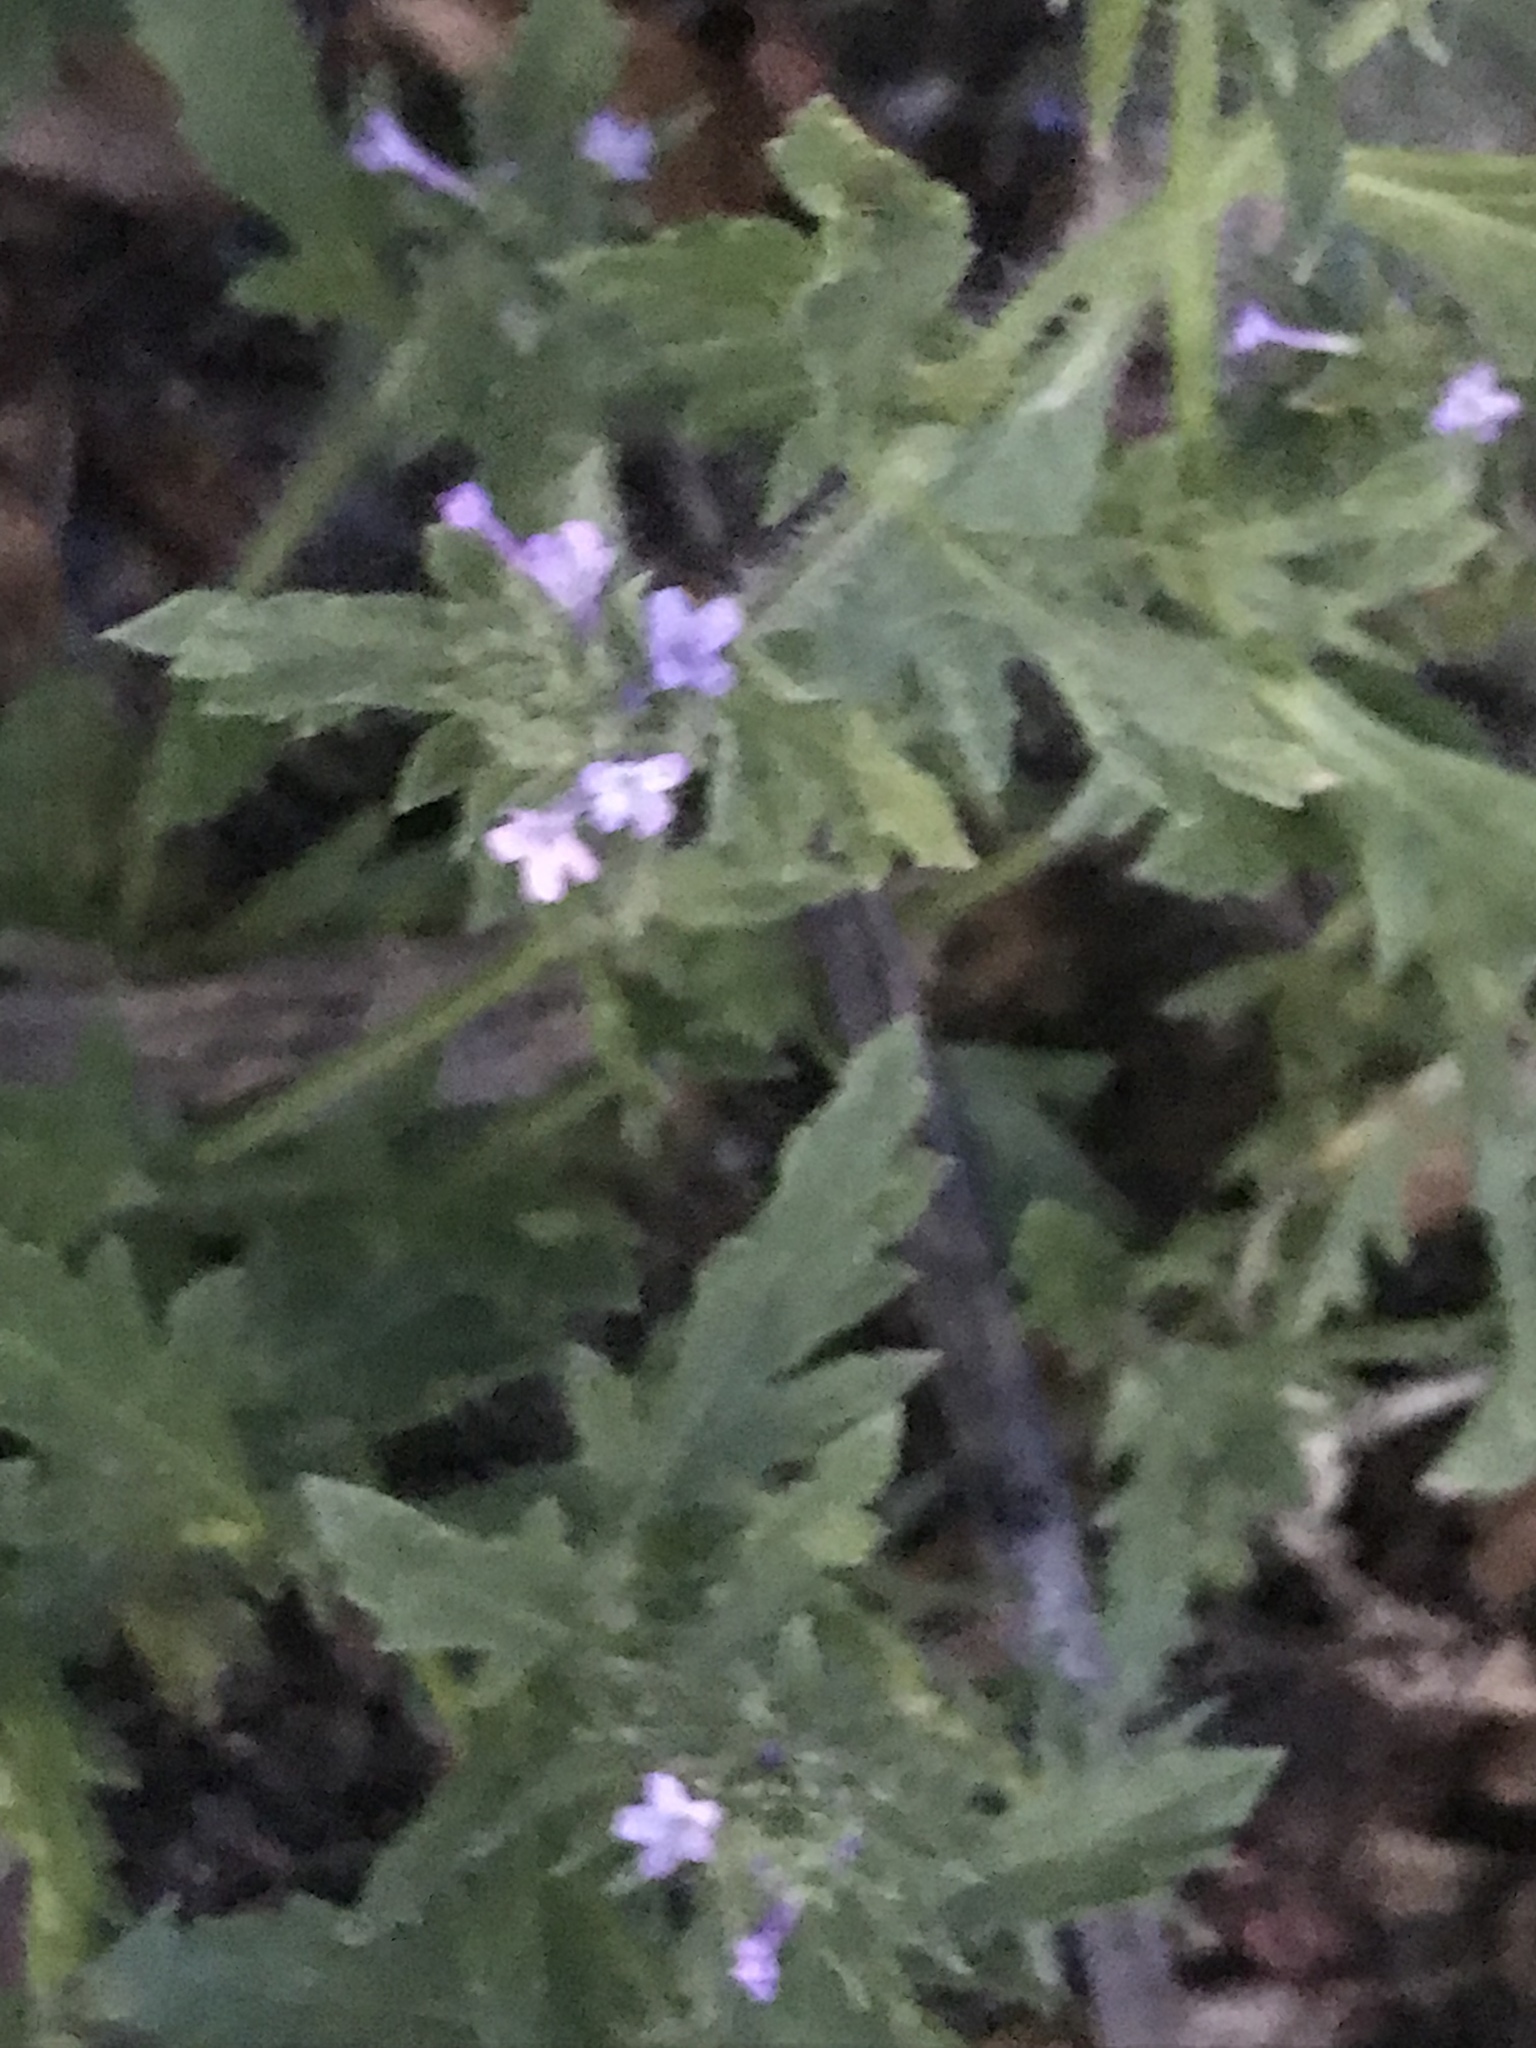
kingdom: Plantae
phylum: Tracheophyta
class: Magnoliopsida
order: Lamiales
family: Verbenaceae
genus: Verbena
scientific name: Verbena bracteata
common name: Bracted vervain
